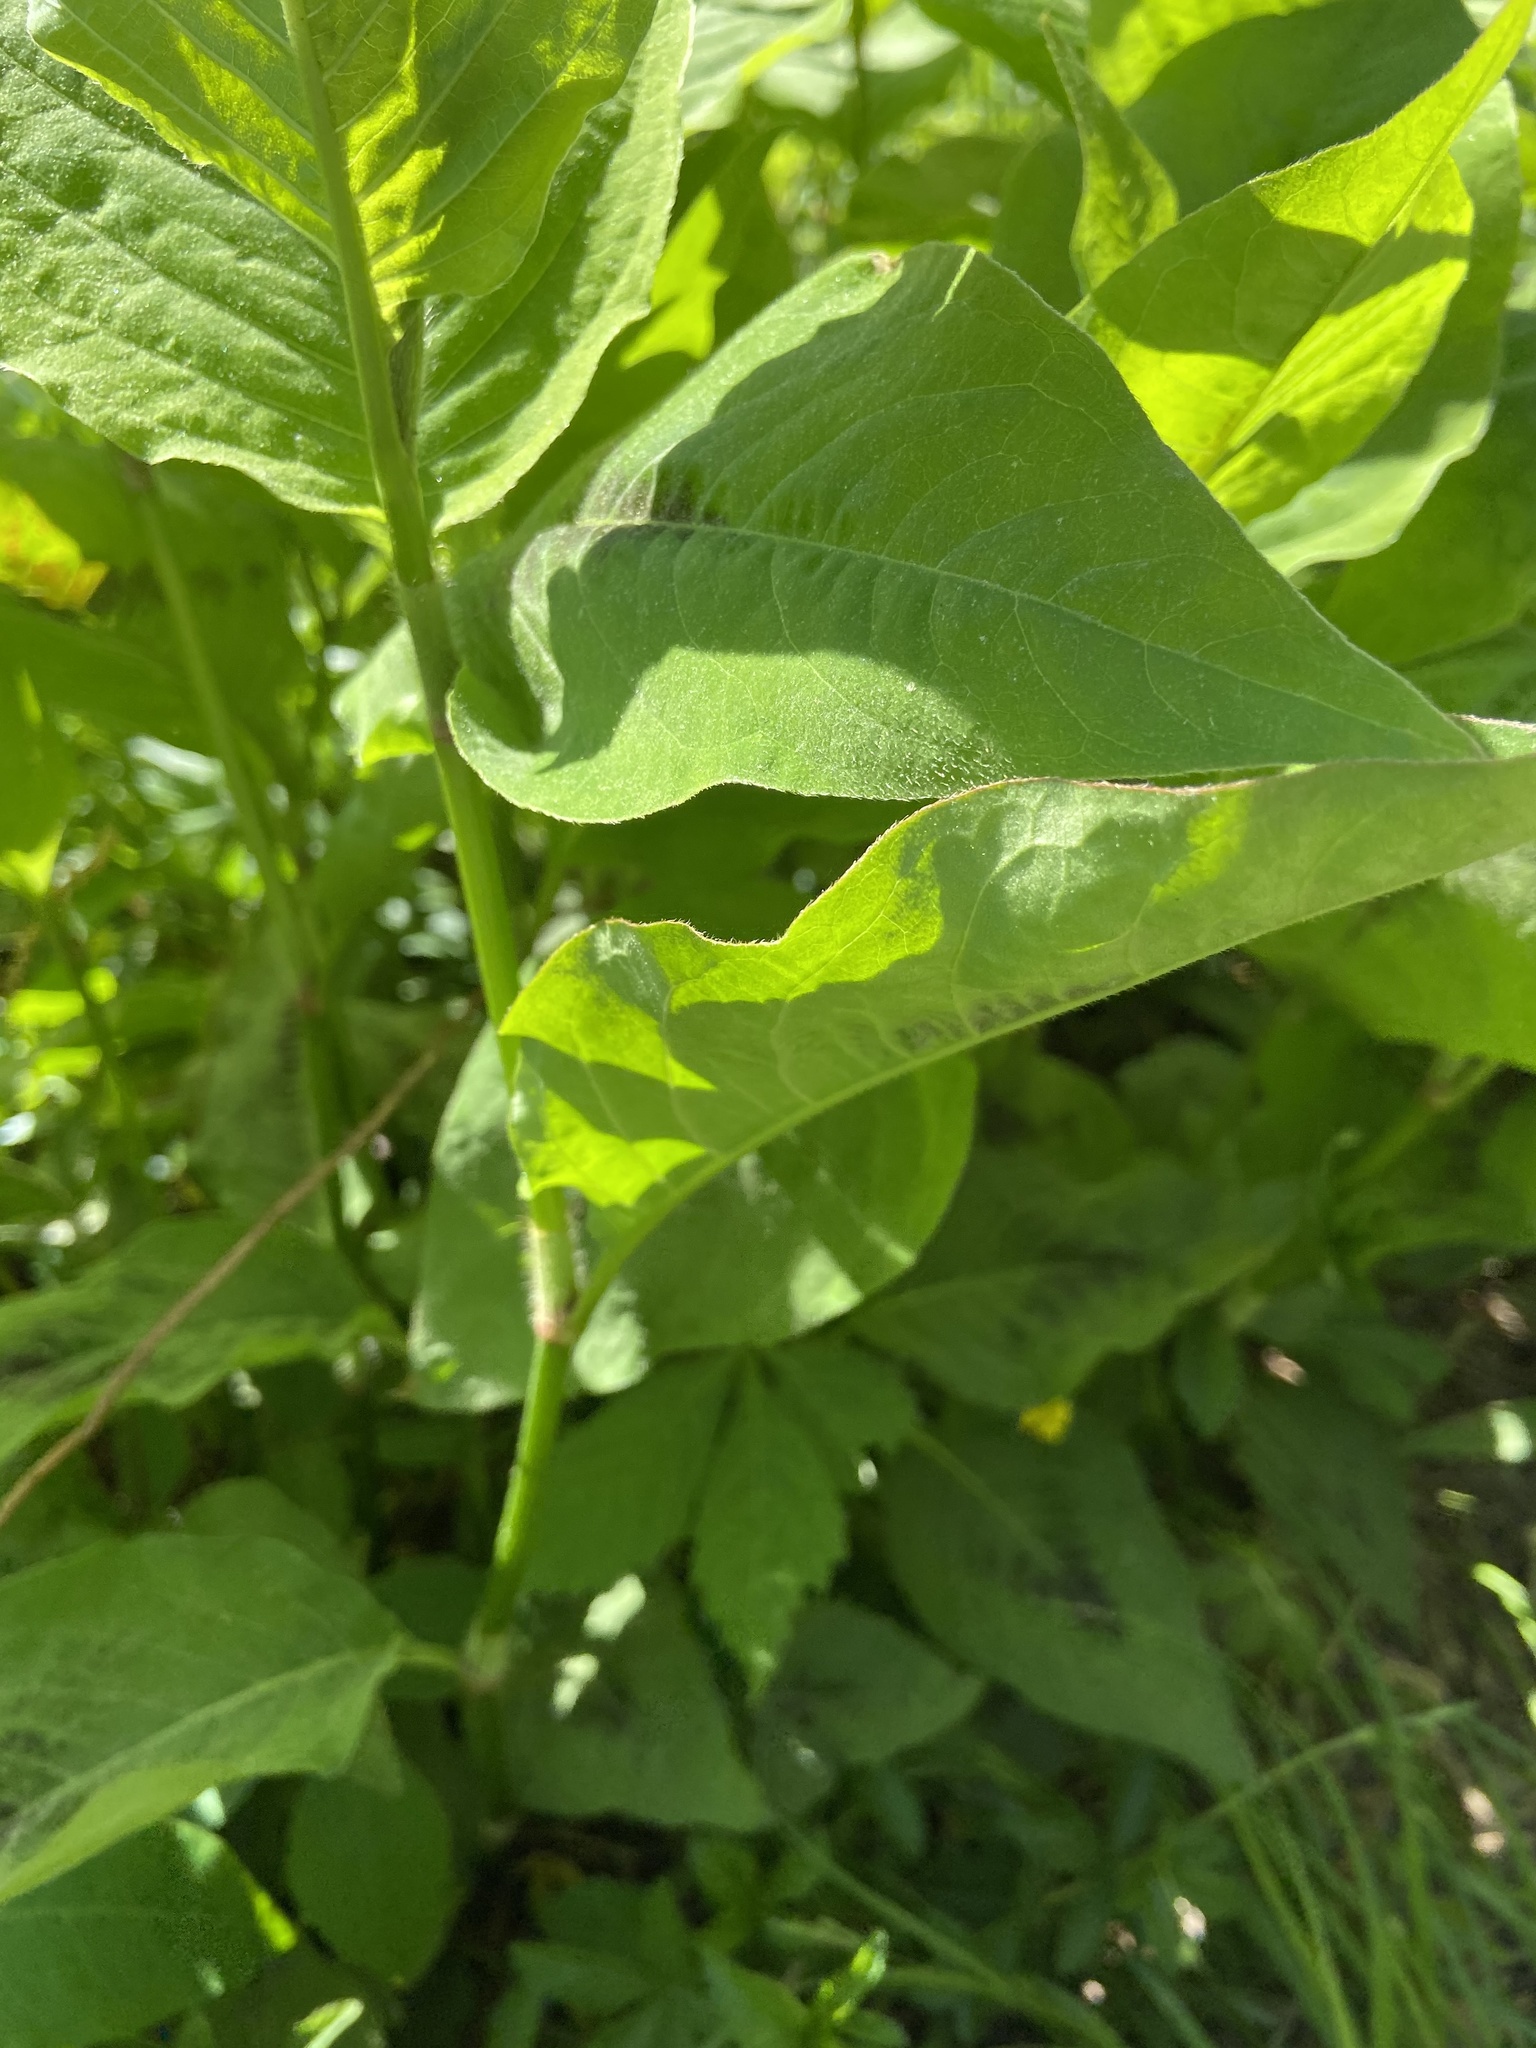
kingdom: Plantae
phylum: Tracheophyta
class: Magnoliopsida
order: Caryophyllales
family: Polygonaceae
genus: Persicaria
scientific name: Persicaria virginiana
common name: Jumpseed
